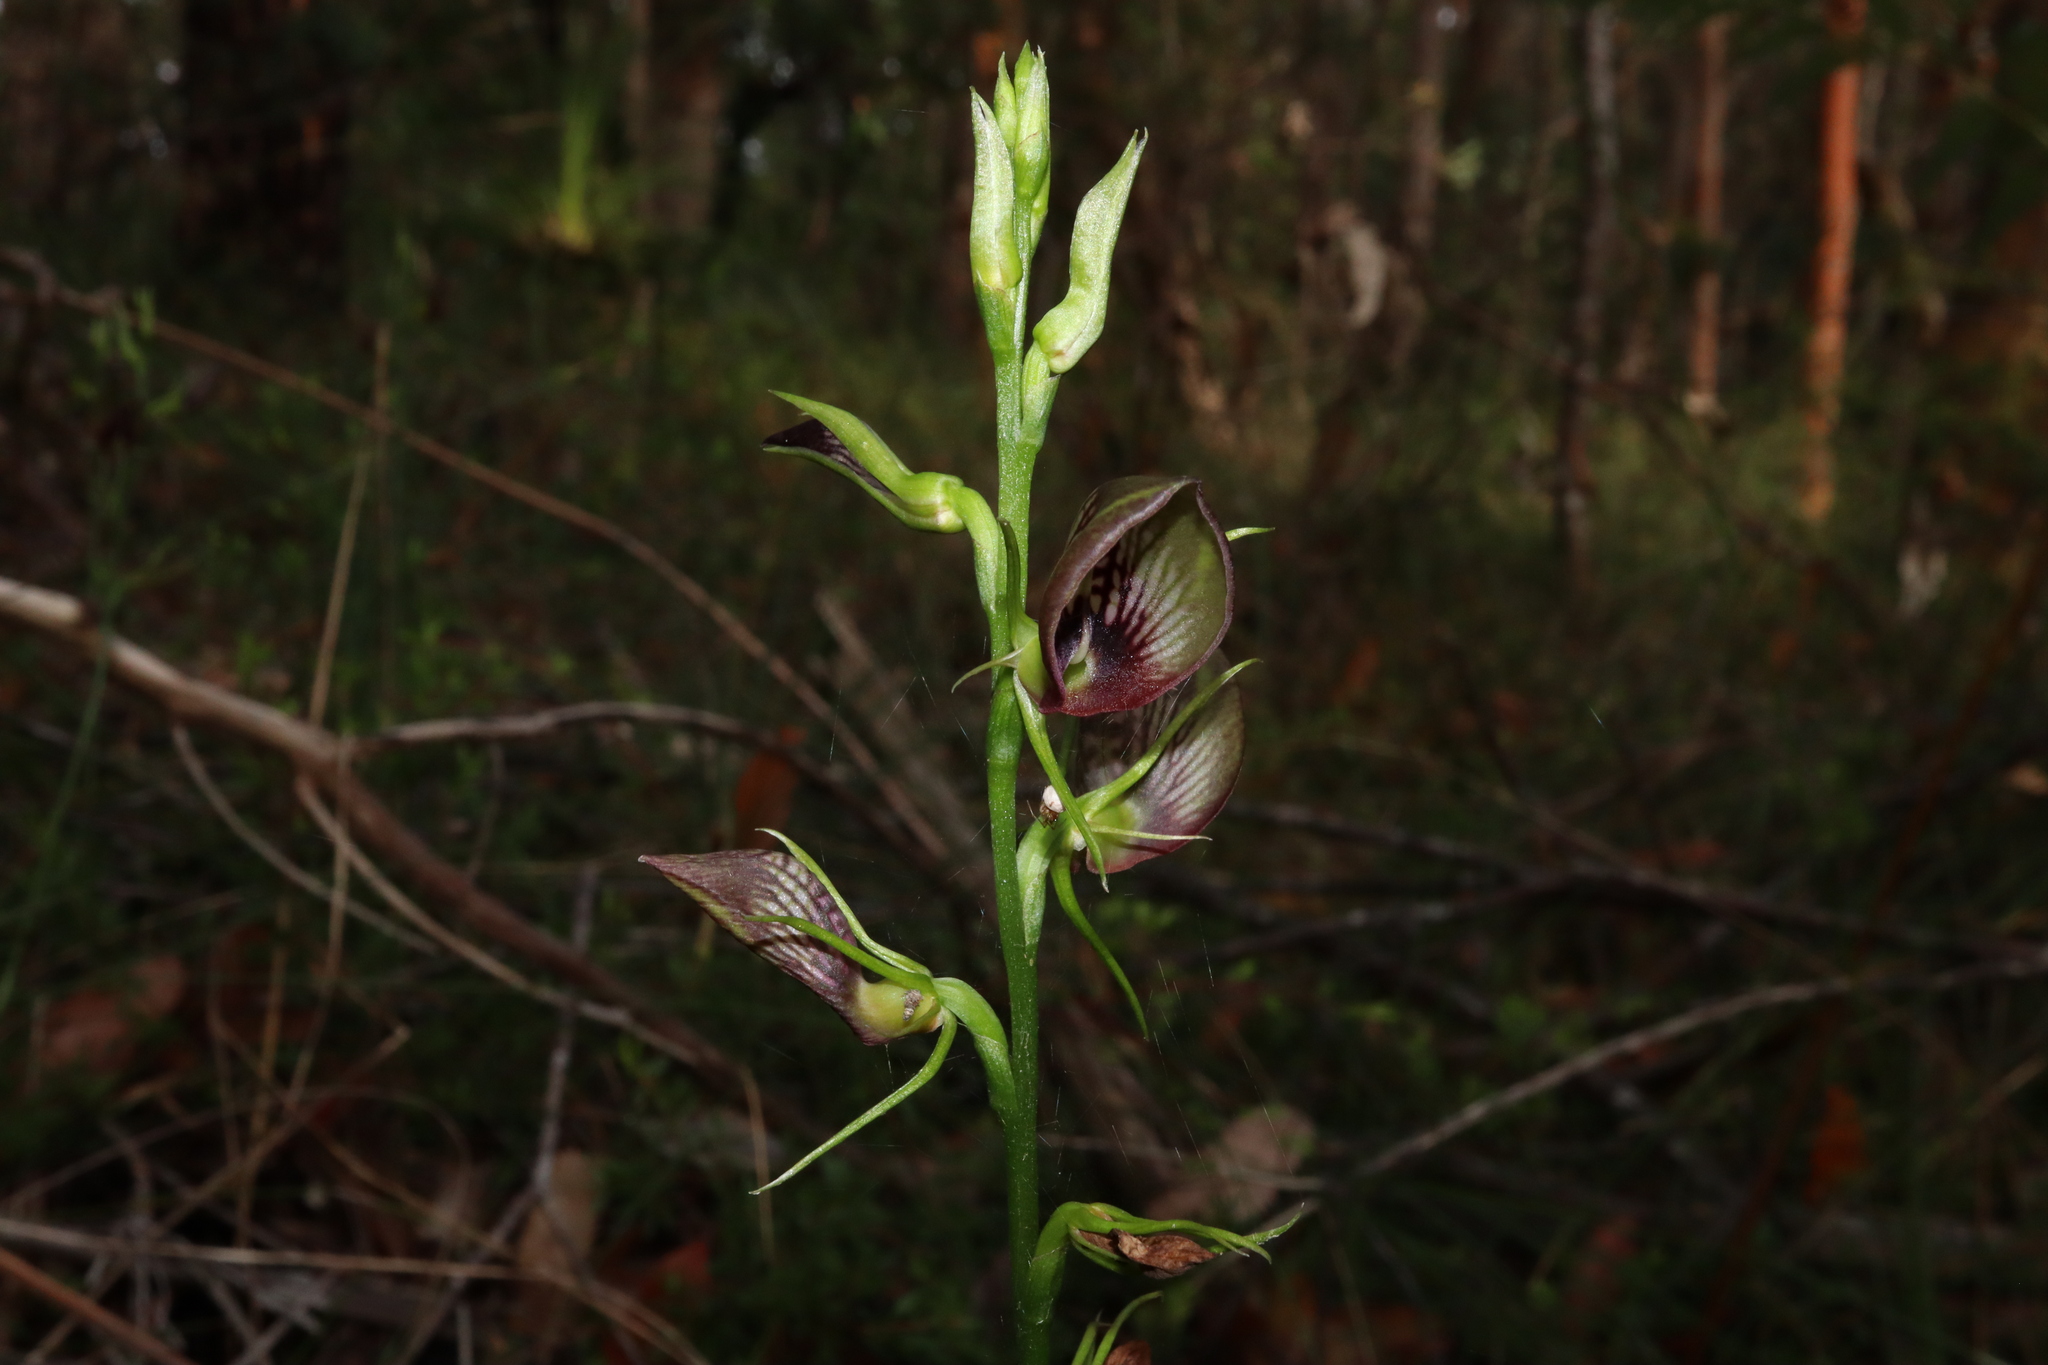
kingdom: Plantae
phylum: Tracheophyta
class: Liliopsida
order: Asparagales
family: Orchidaceae
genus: Cryptostylis
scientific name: Cryptostylis erecta
